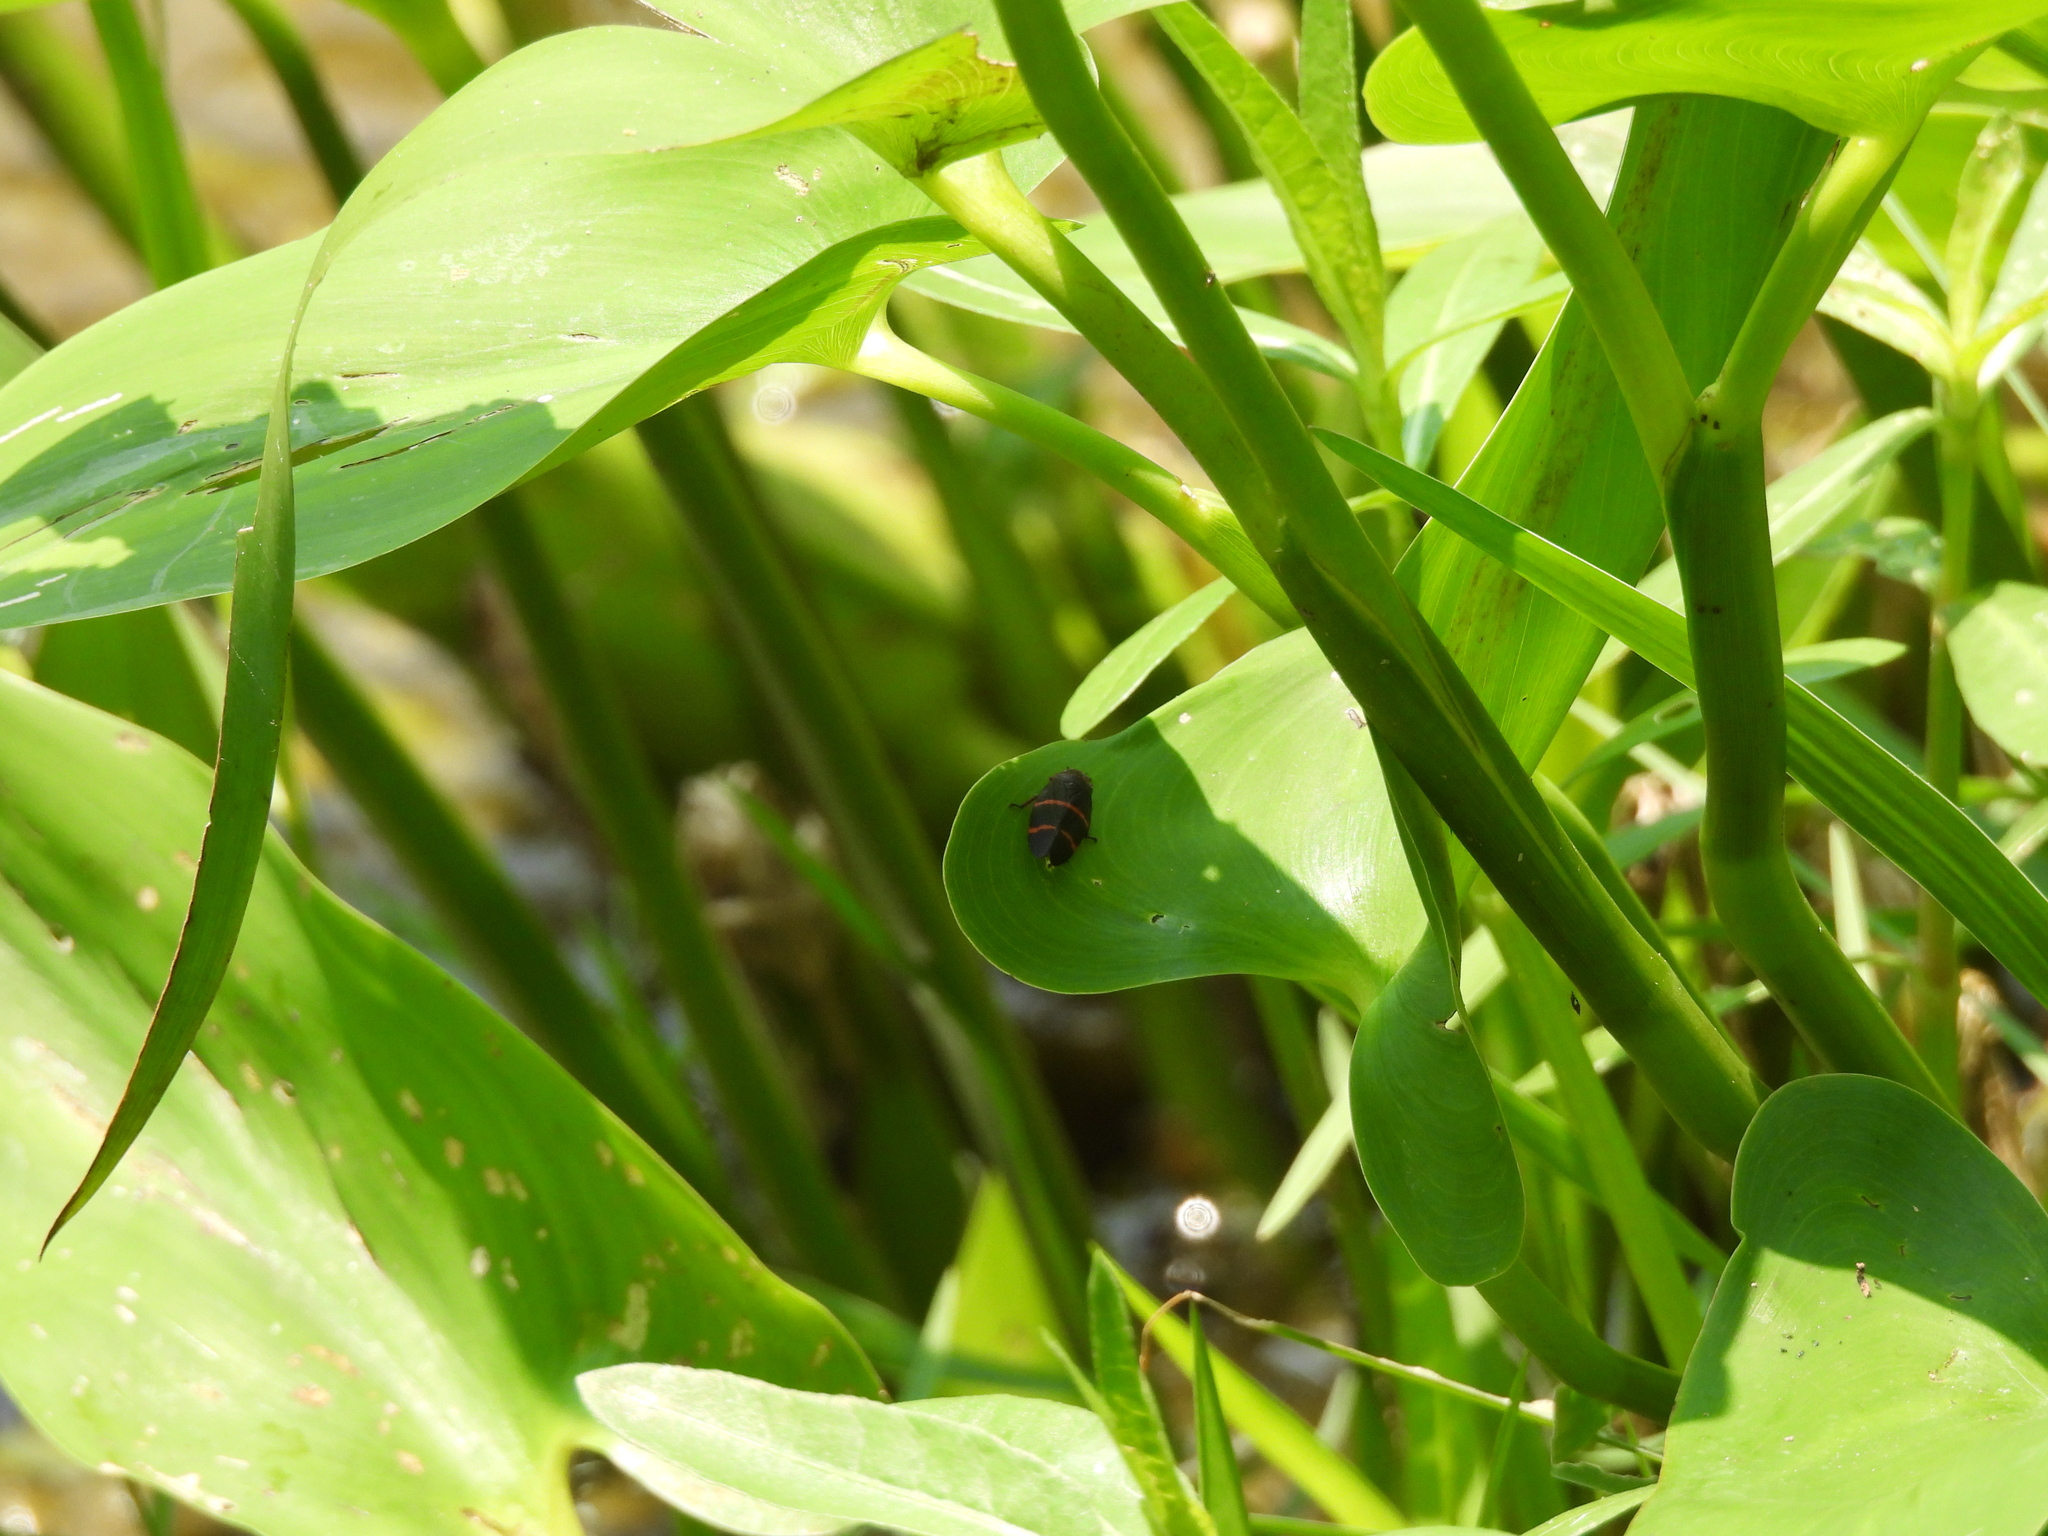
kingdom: Animalia
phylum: Arthropoda
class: Insecta
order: Hemiptera
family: Cercopidae
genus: Prosapia
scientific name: Prosapia bicincta
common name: Twolined spittlebug
